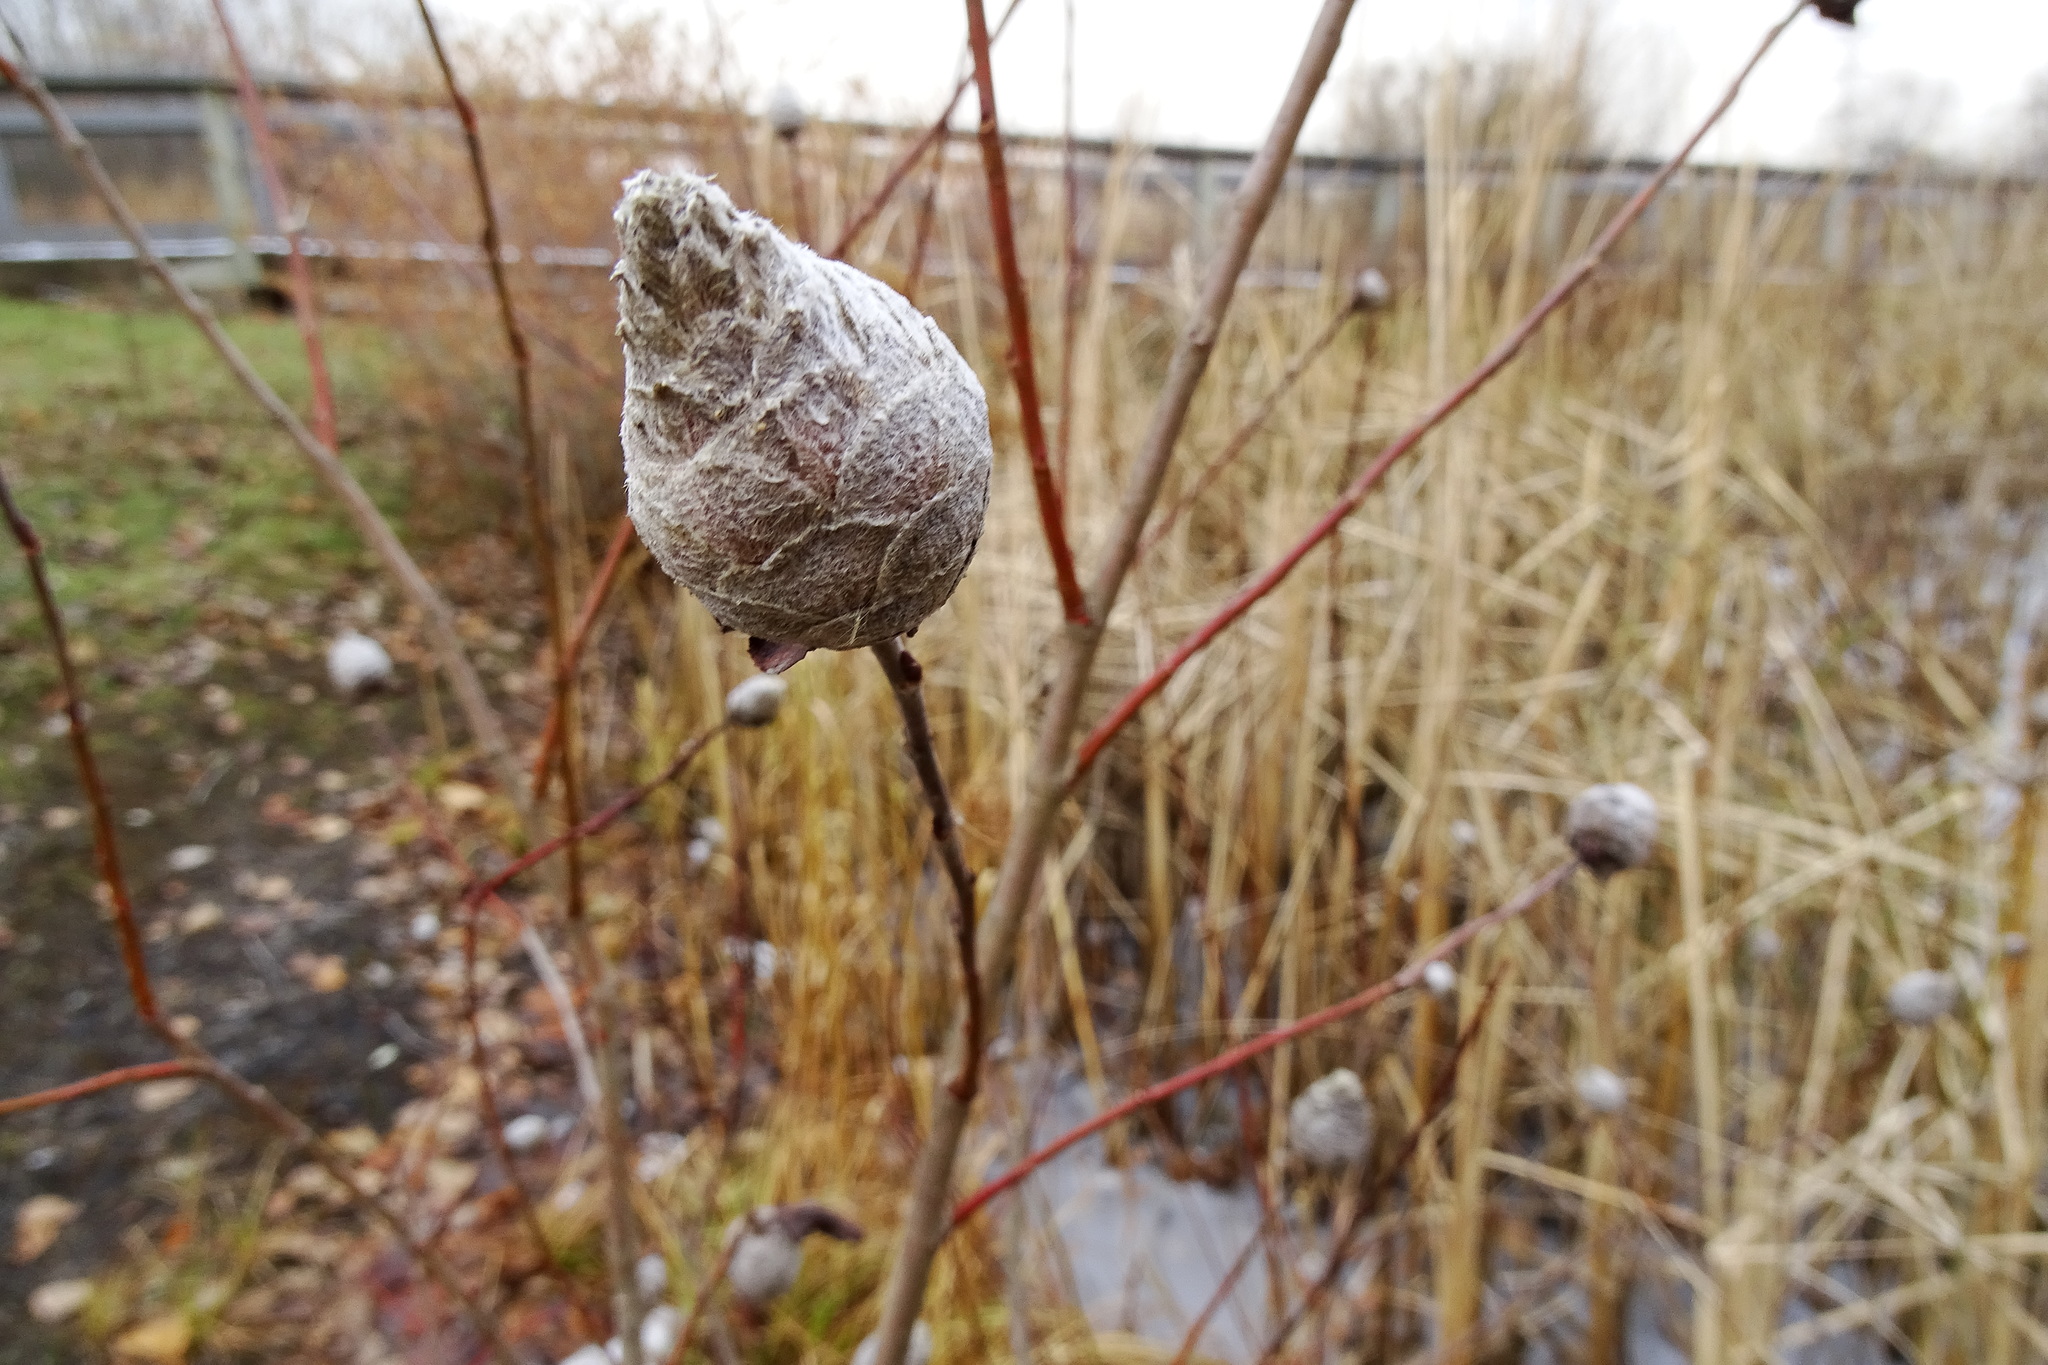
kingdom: Animalia
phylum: Arthropoda
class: Insecta
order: Diptera
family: Cecidomyiidae
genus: Rabdophaga
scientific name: Rabdophaga strobiloides
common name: Willow pinecone gall midge
